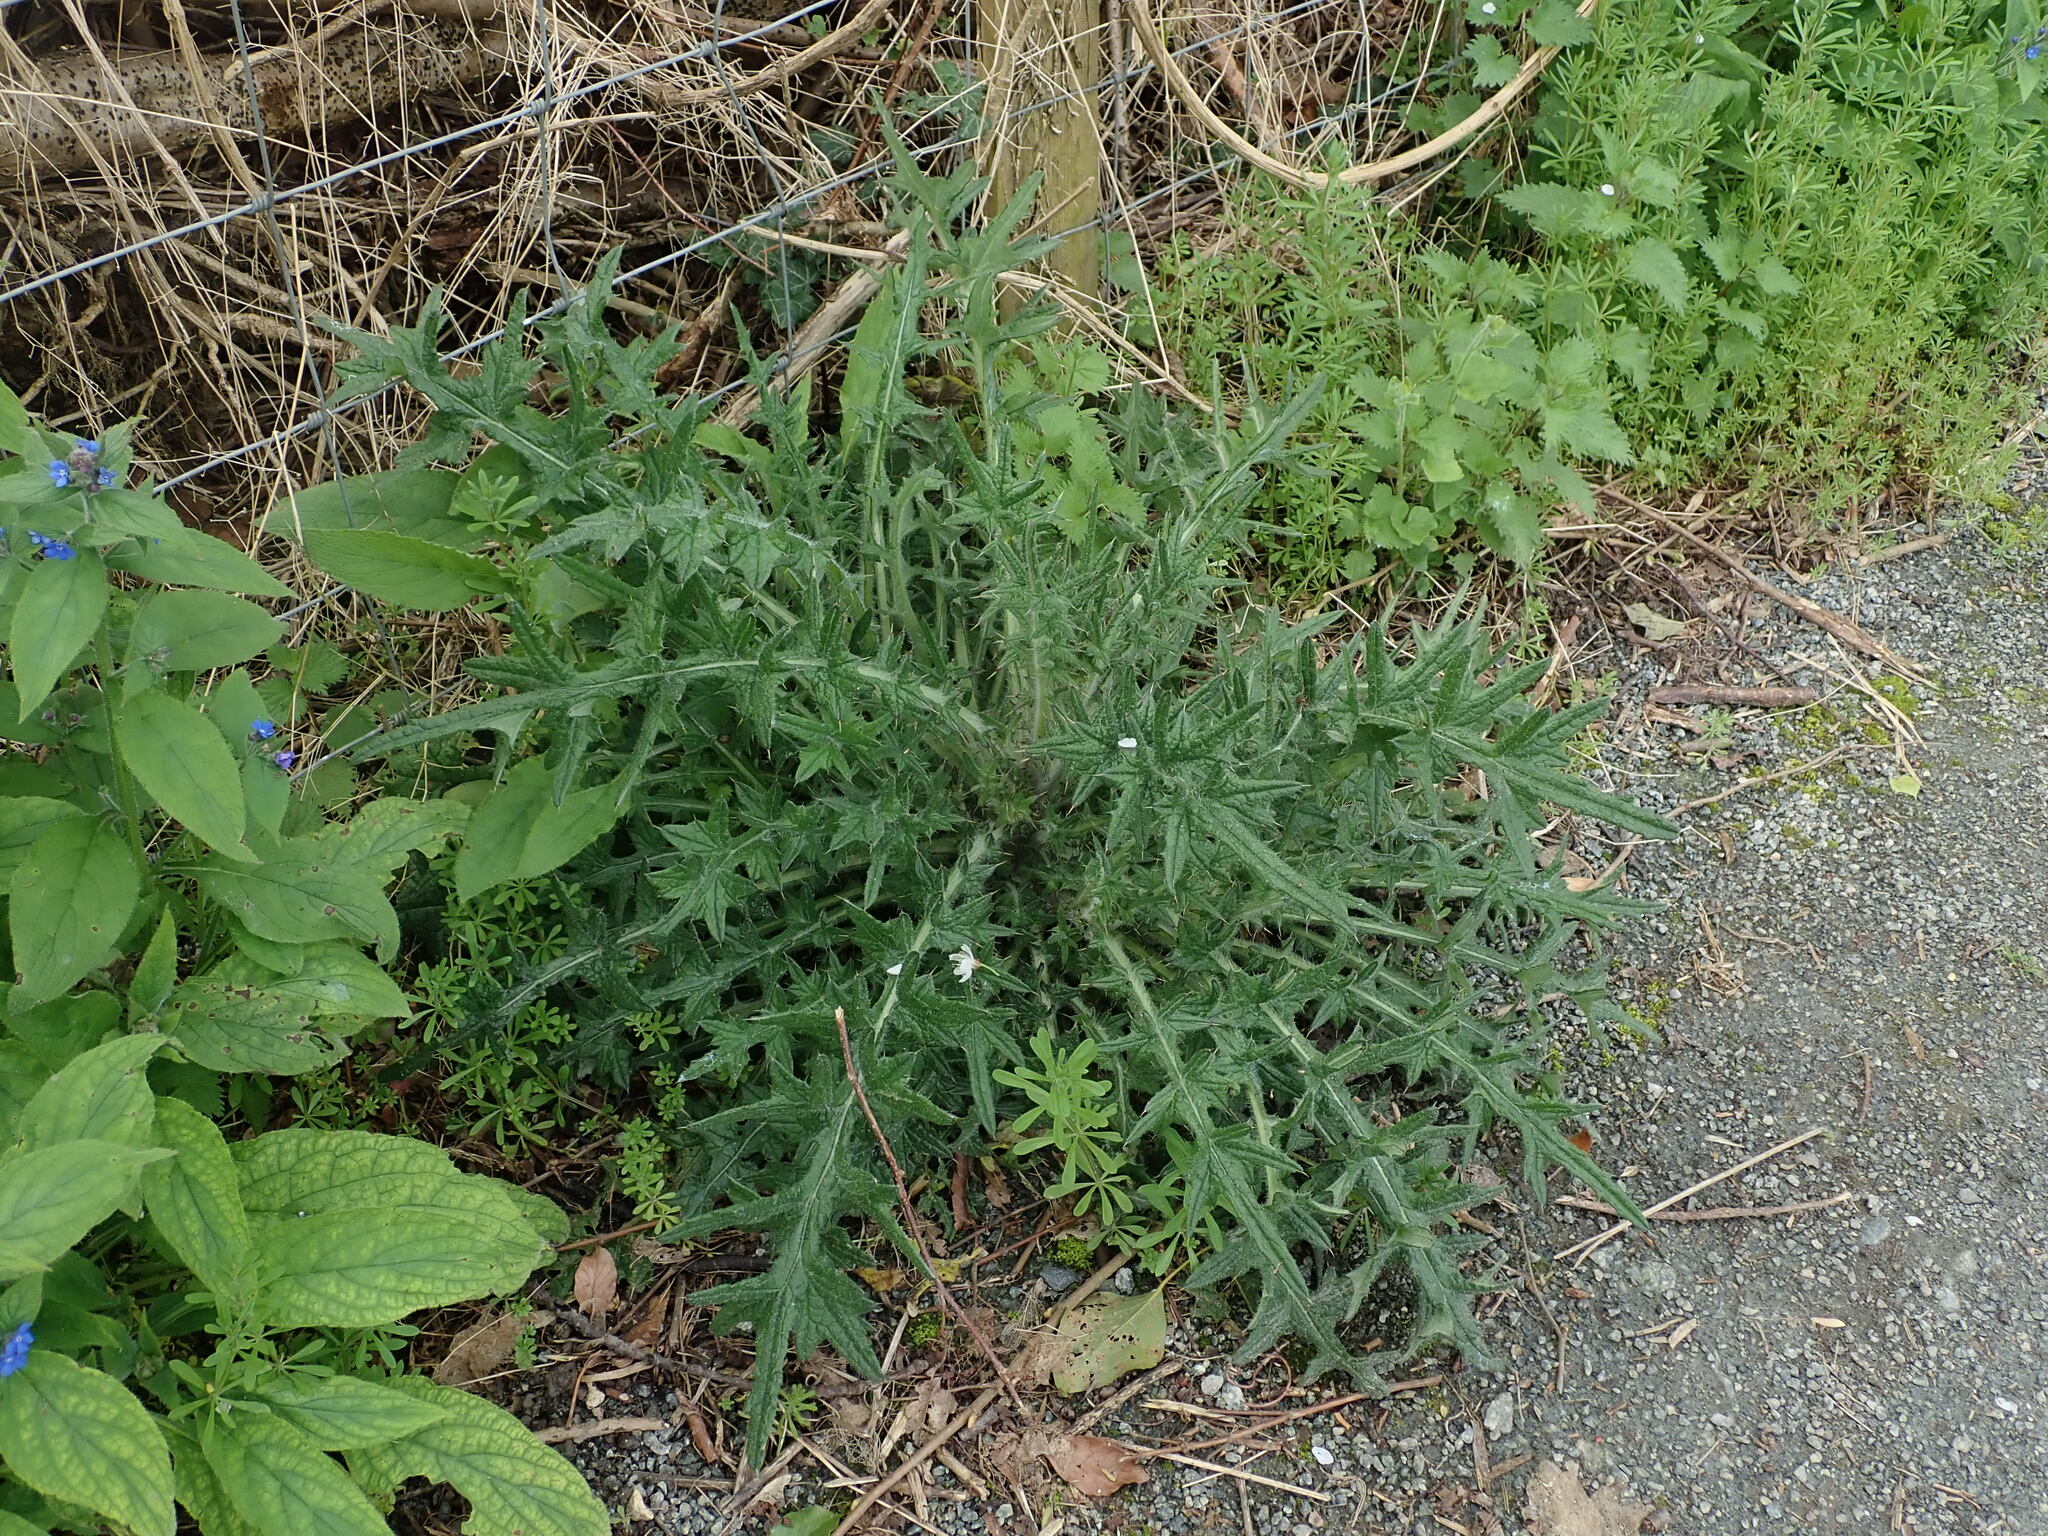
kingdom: Plantae
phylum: Tracheophyta
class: Magnoliopsida
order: Asterales
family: Asteraceae
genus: Cirsium
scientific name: Cirsium vulgare
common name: Bull thistle
